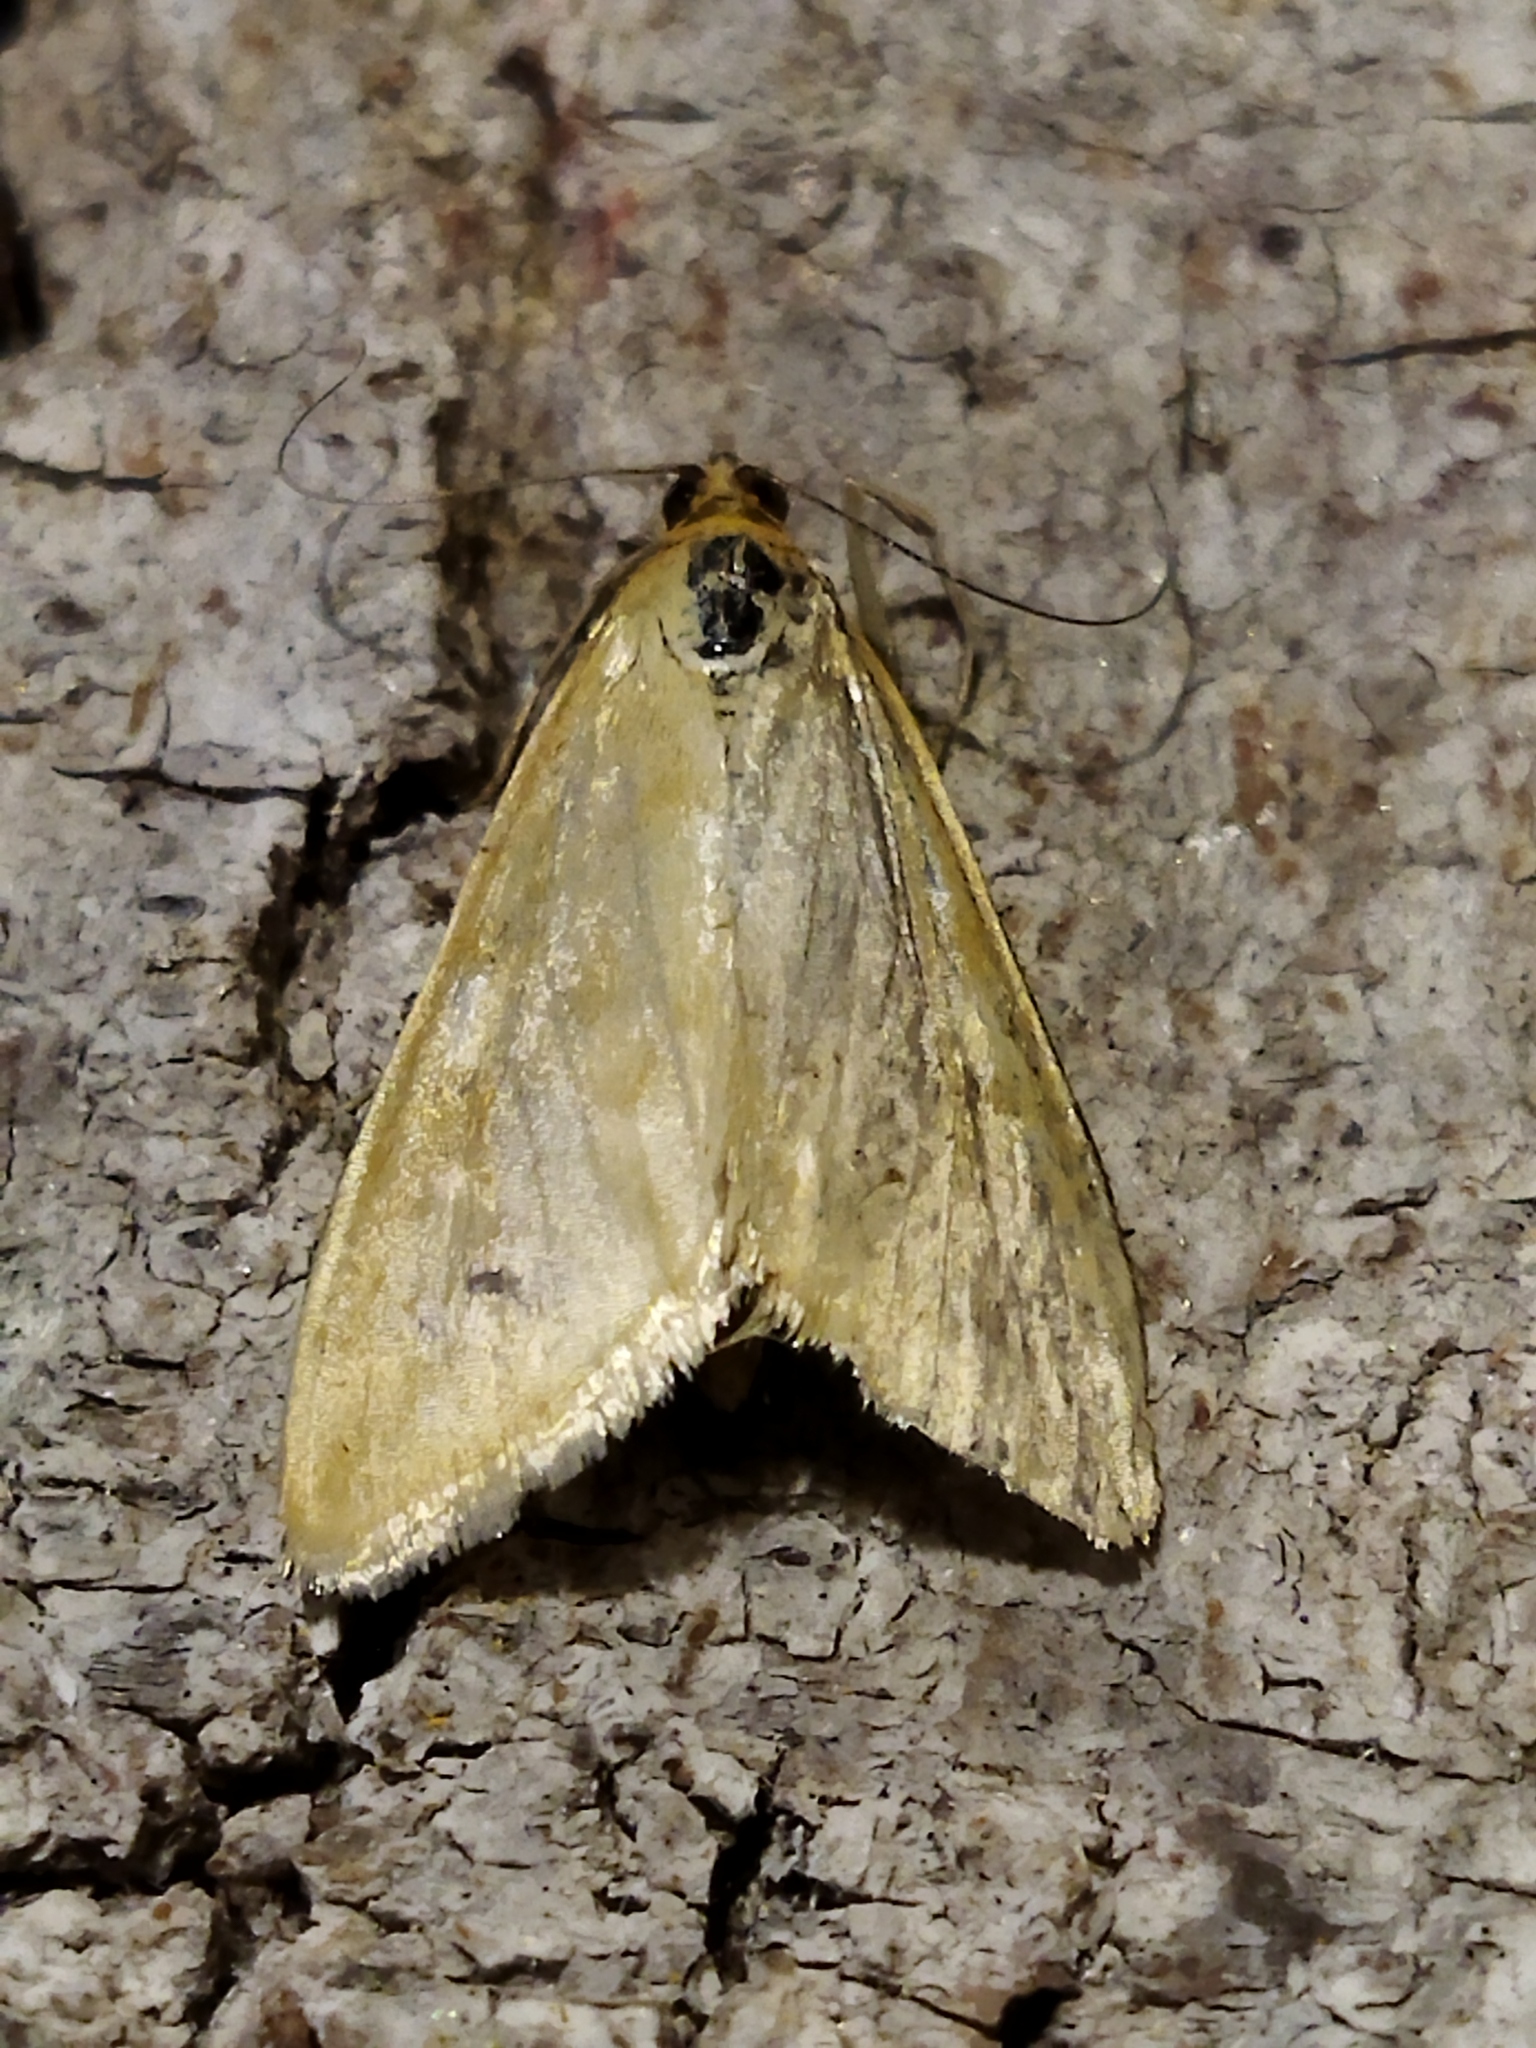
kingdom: Animalia
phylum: Arthropoda
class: Insecta
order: Lepidoptera
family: Crambidae
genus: Sitochroa
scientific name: Sitochroa verticalis
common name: Lesser pearl
